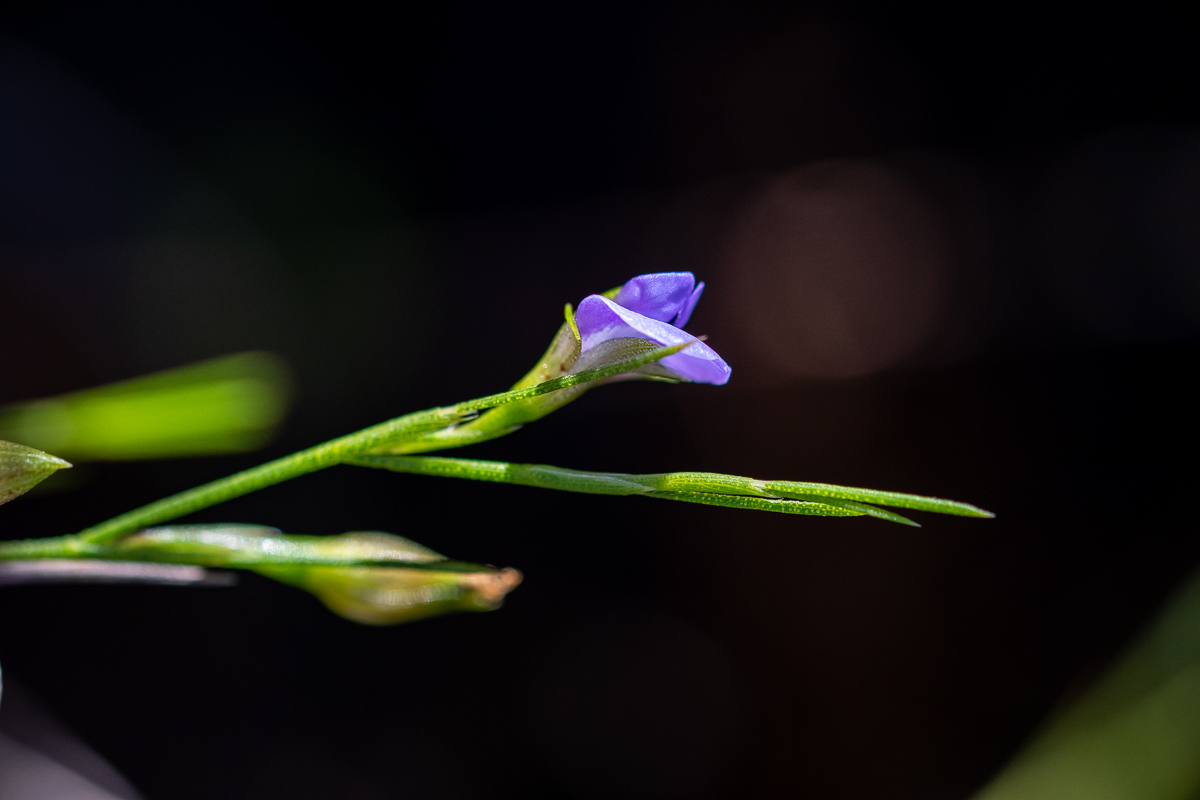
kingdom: Plantae
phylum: Tracheophyta
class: Magnoliopsida
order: Fabales
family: Fabaceae
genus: Psoralea
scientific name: Psoralea restioides
